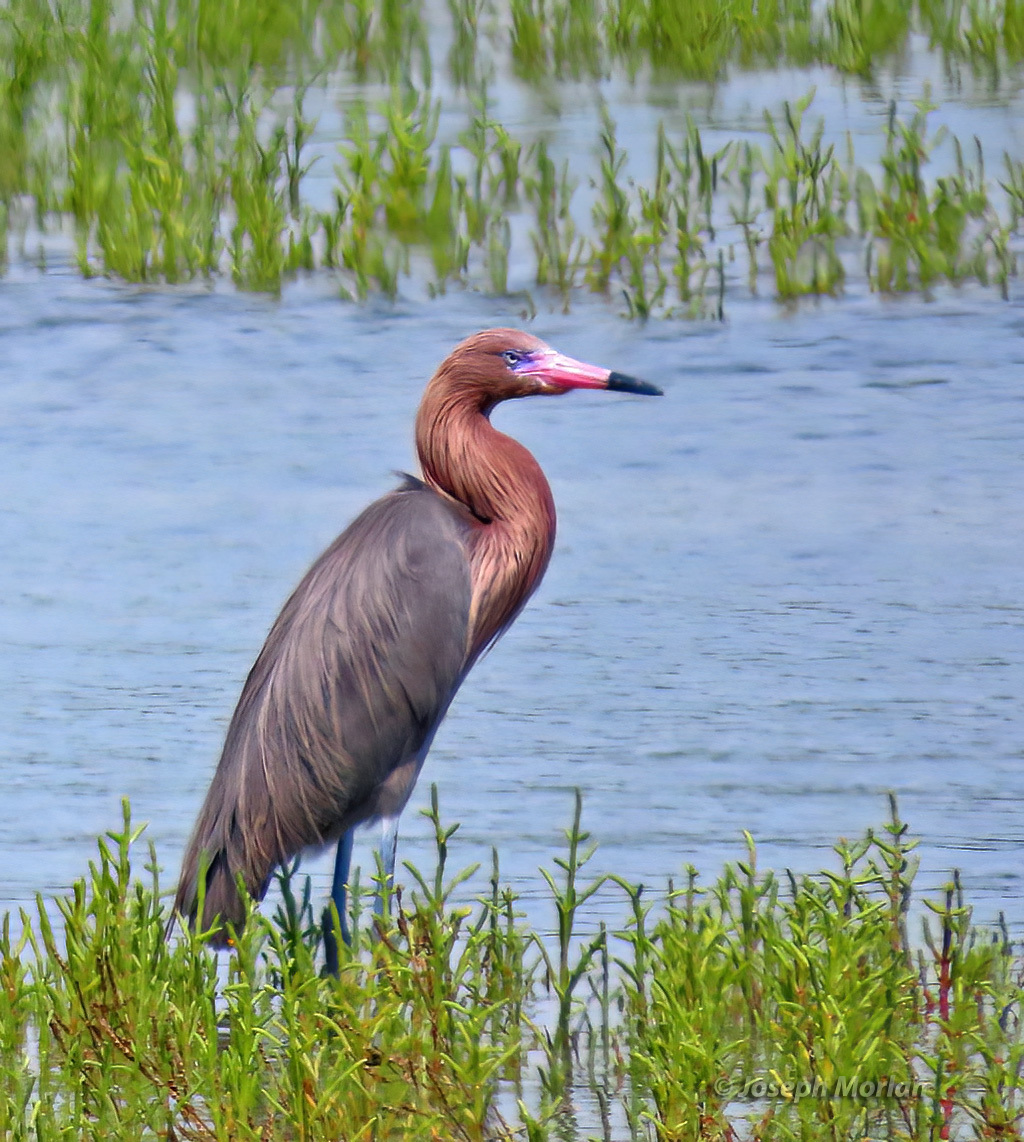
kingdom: Animalia
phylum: Chordata
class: Aves
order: Pelecaniformes
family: Ardeidae
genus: Egretta
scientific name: Egretta rufescens
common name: Reddish egret
